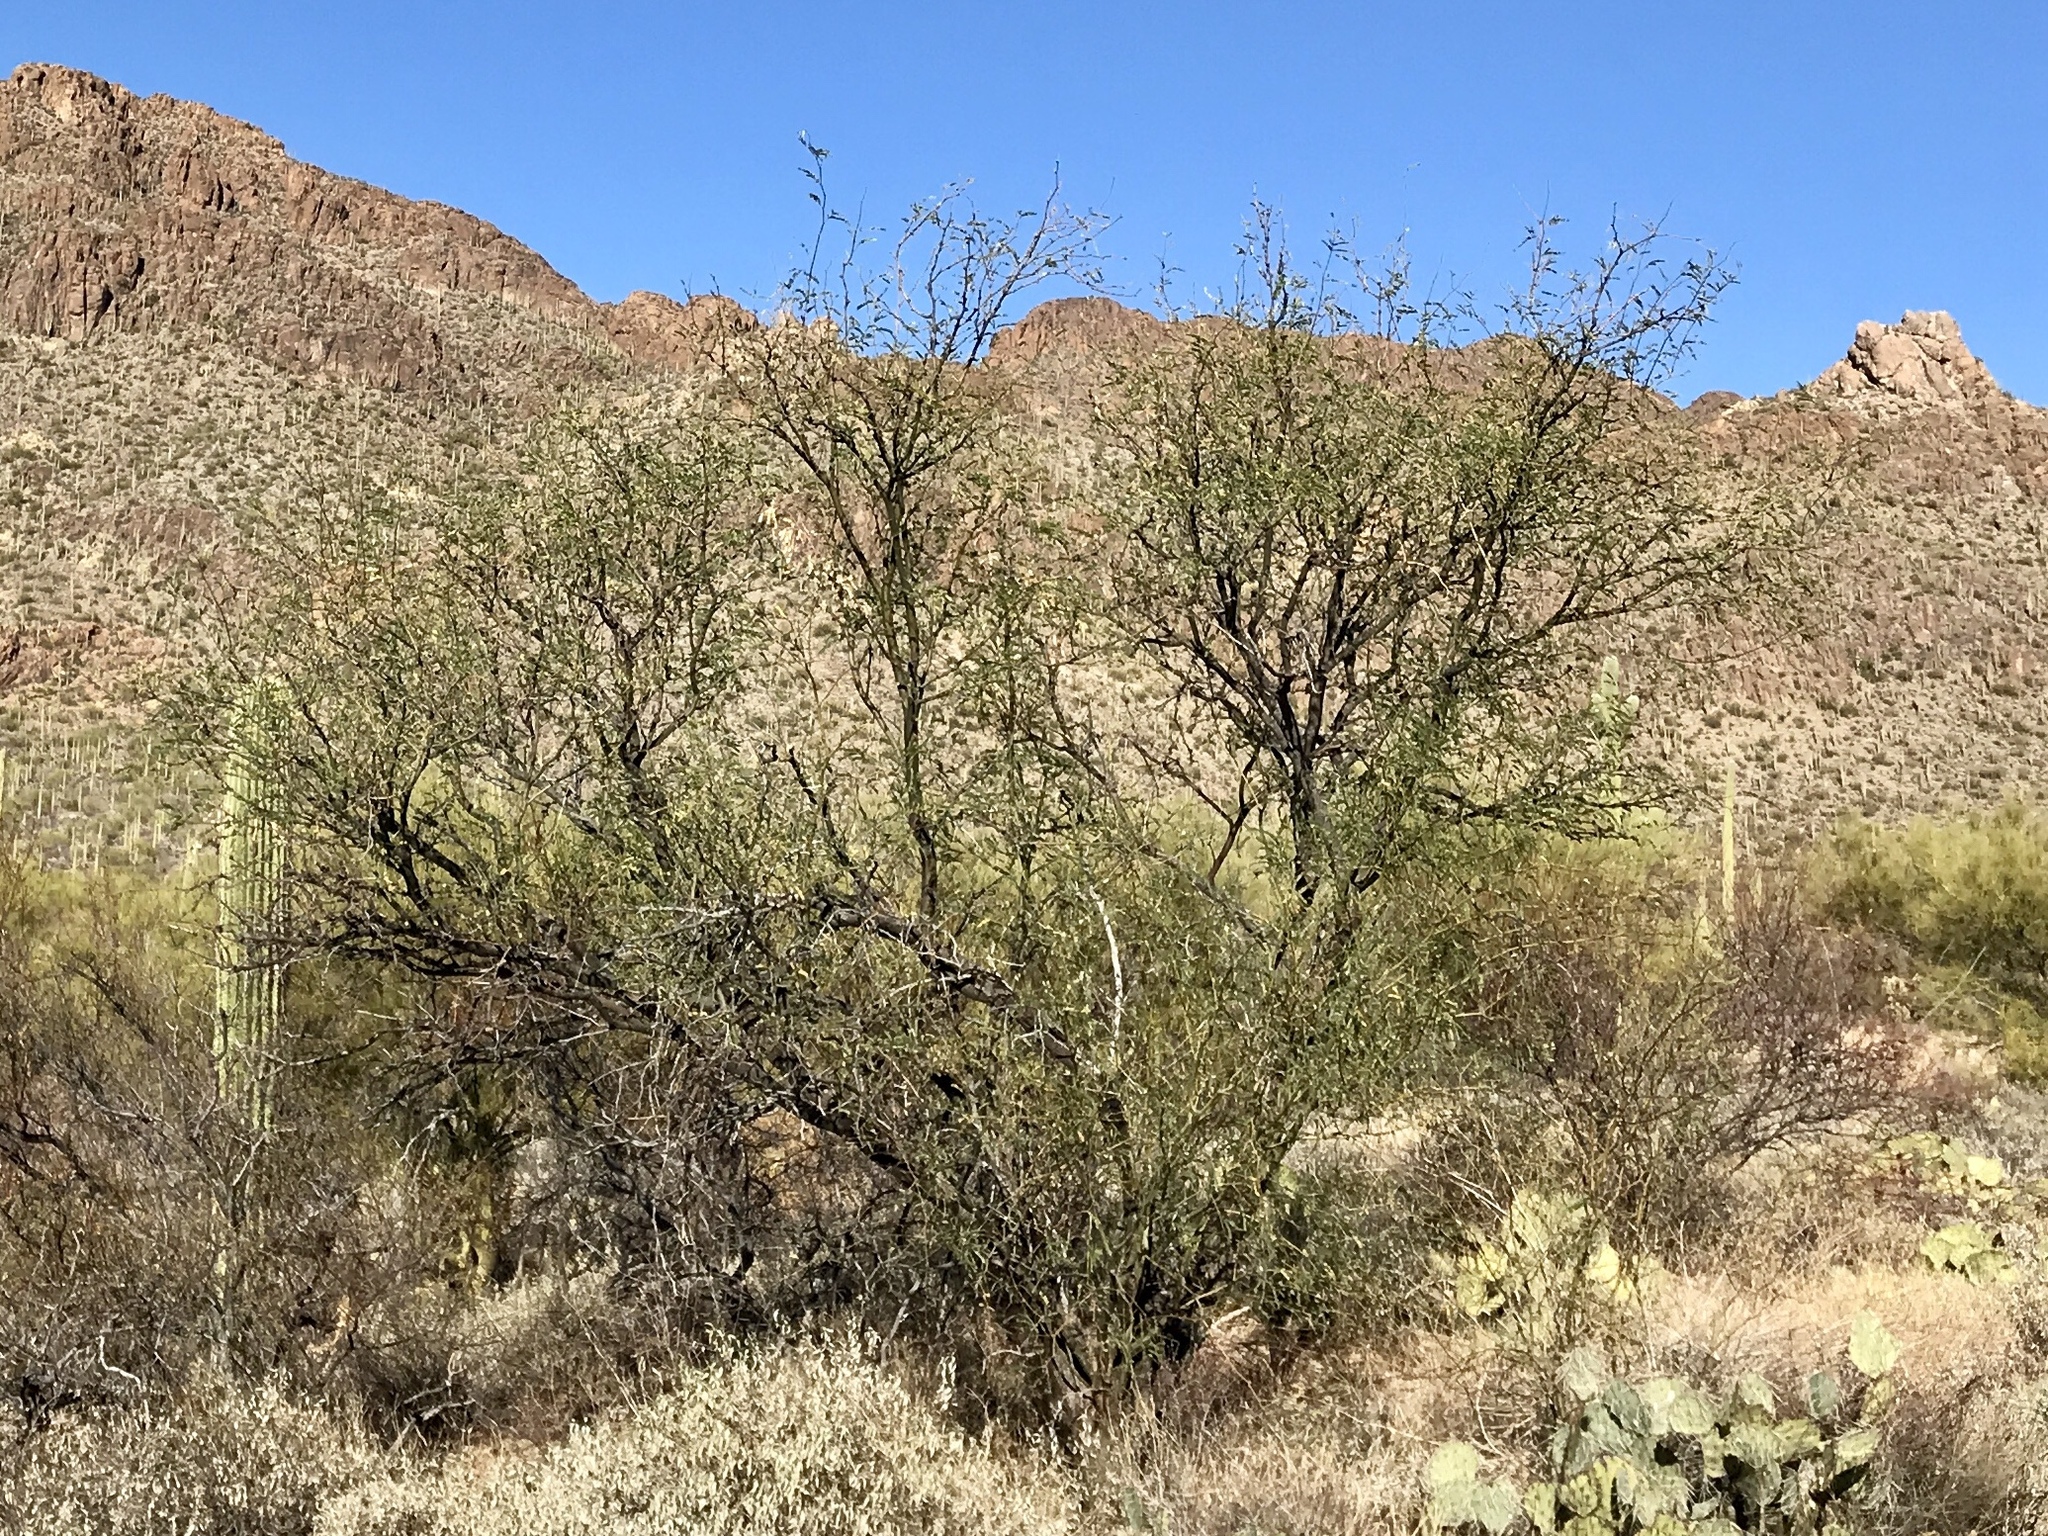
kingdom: Plantae
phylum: Tracheophyta
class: Magnoliopsida
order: Fabales
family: Fabaceae
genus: Olneya
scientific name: Olneya tesota
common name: Desert ironwood
